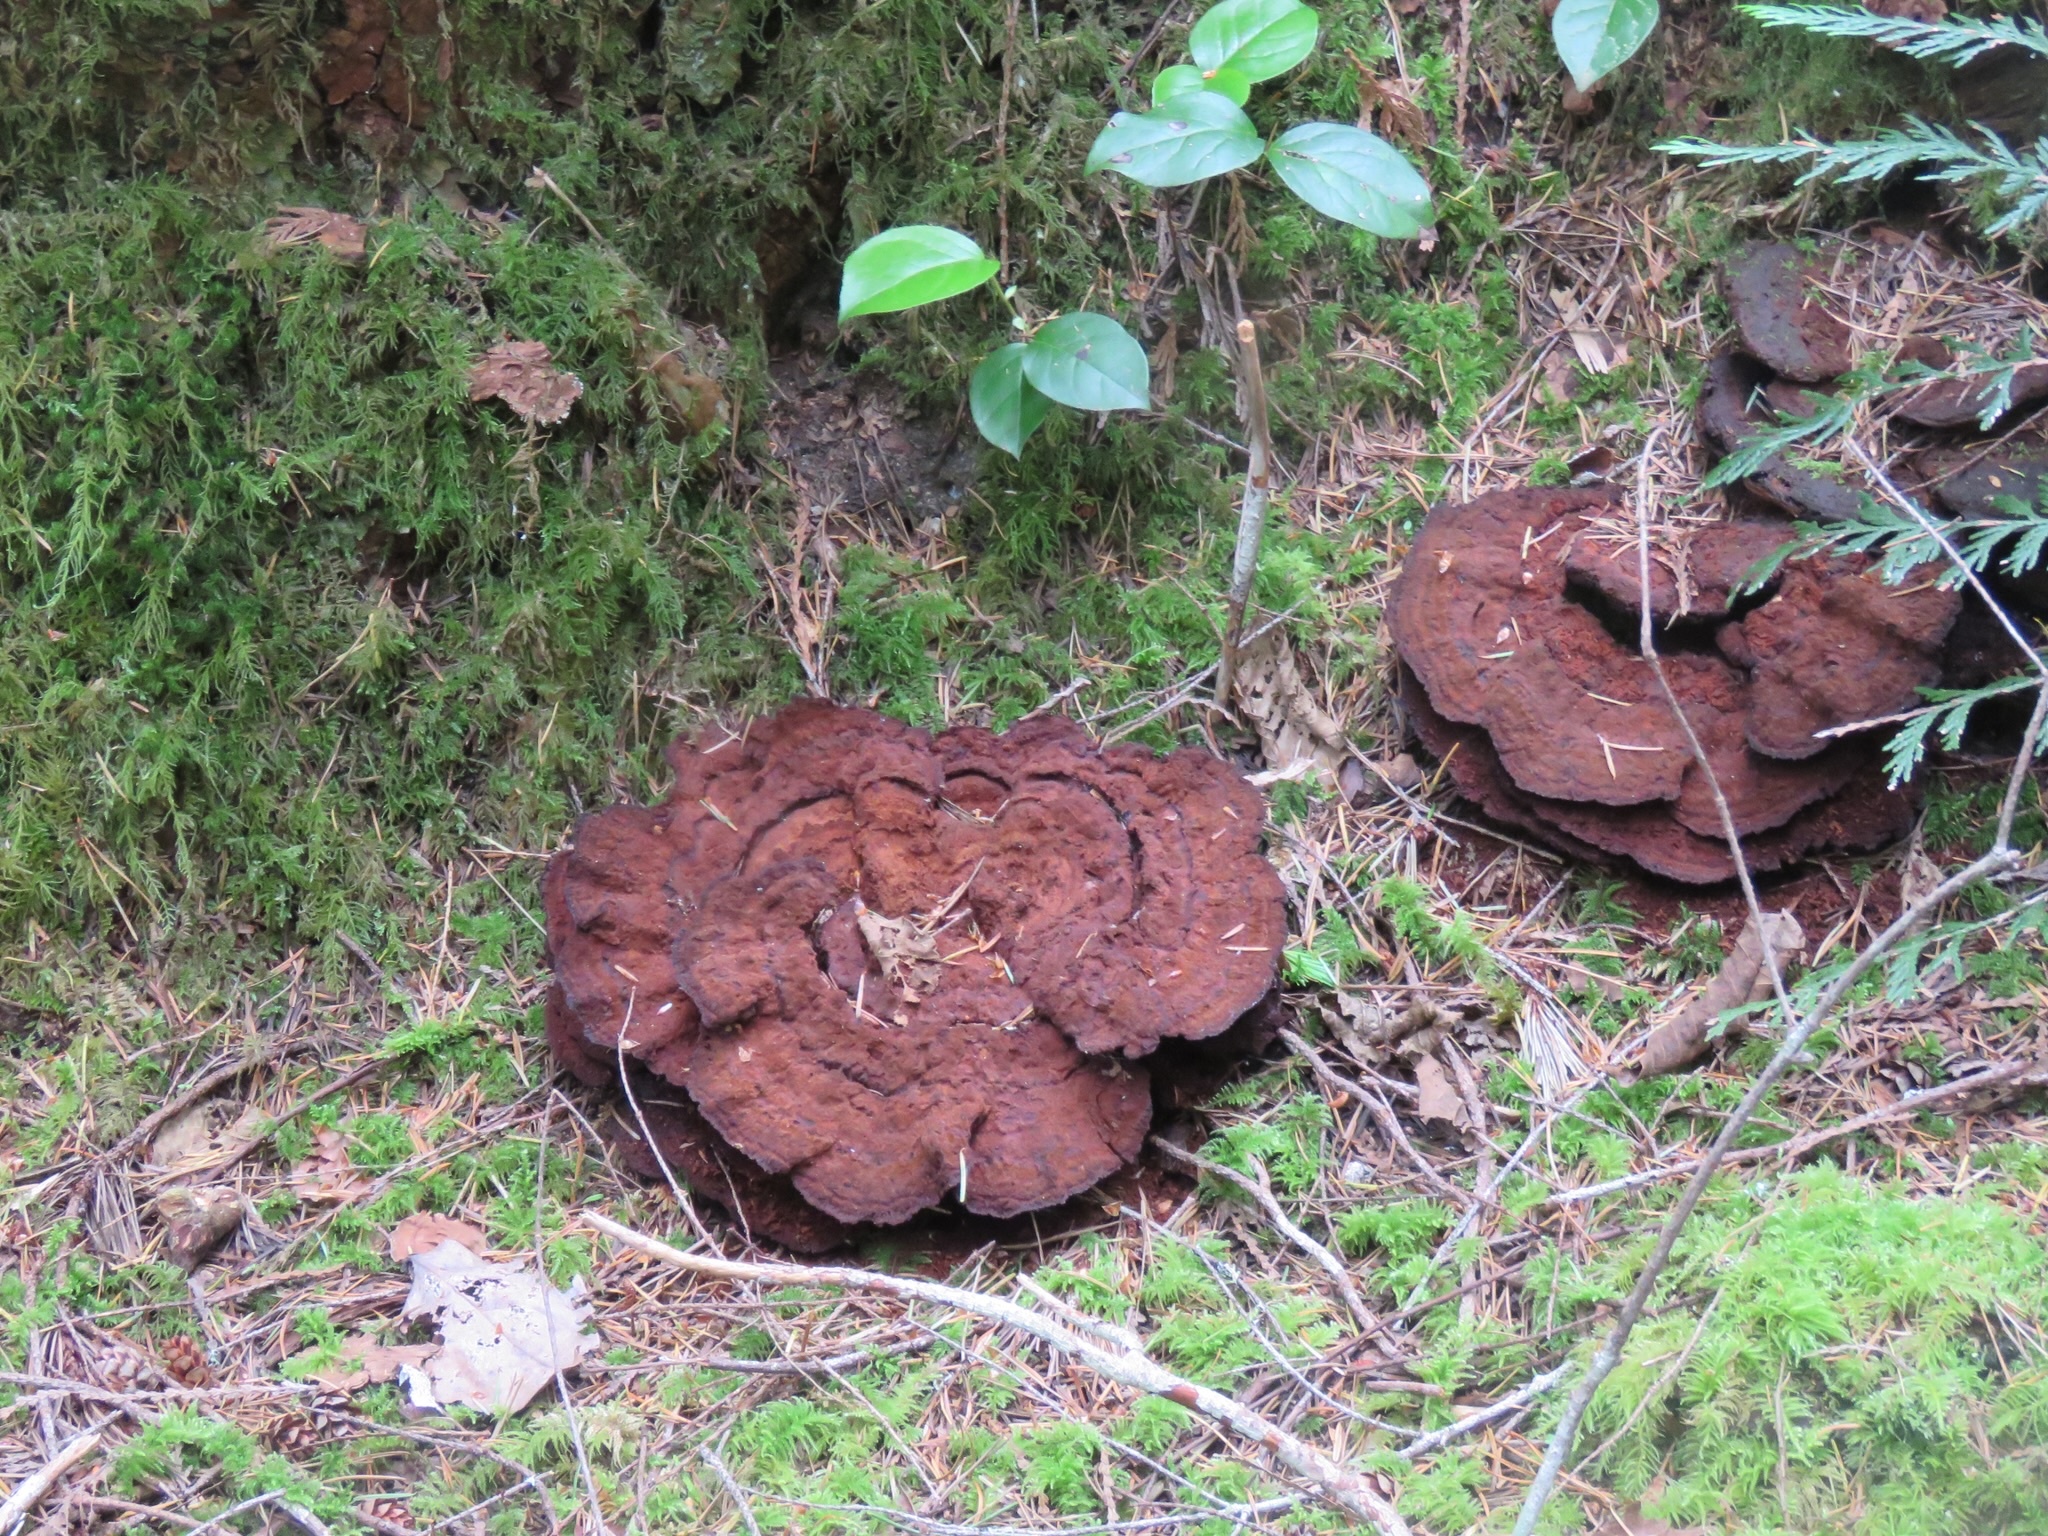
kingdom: Fungi
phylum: Basidiomycota
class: Agaricomycetes
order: Polyporales
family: Laetiporaceae
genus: Phaeolus
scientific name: Phaeolus schweinitzii
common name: Dyer's mazegill
